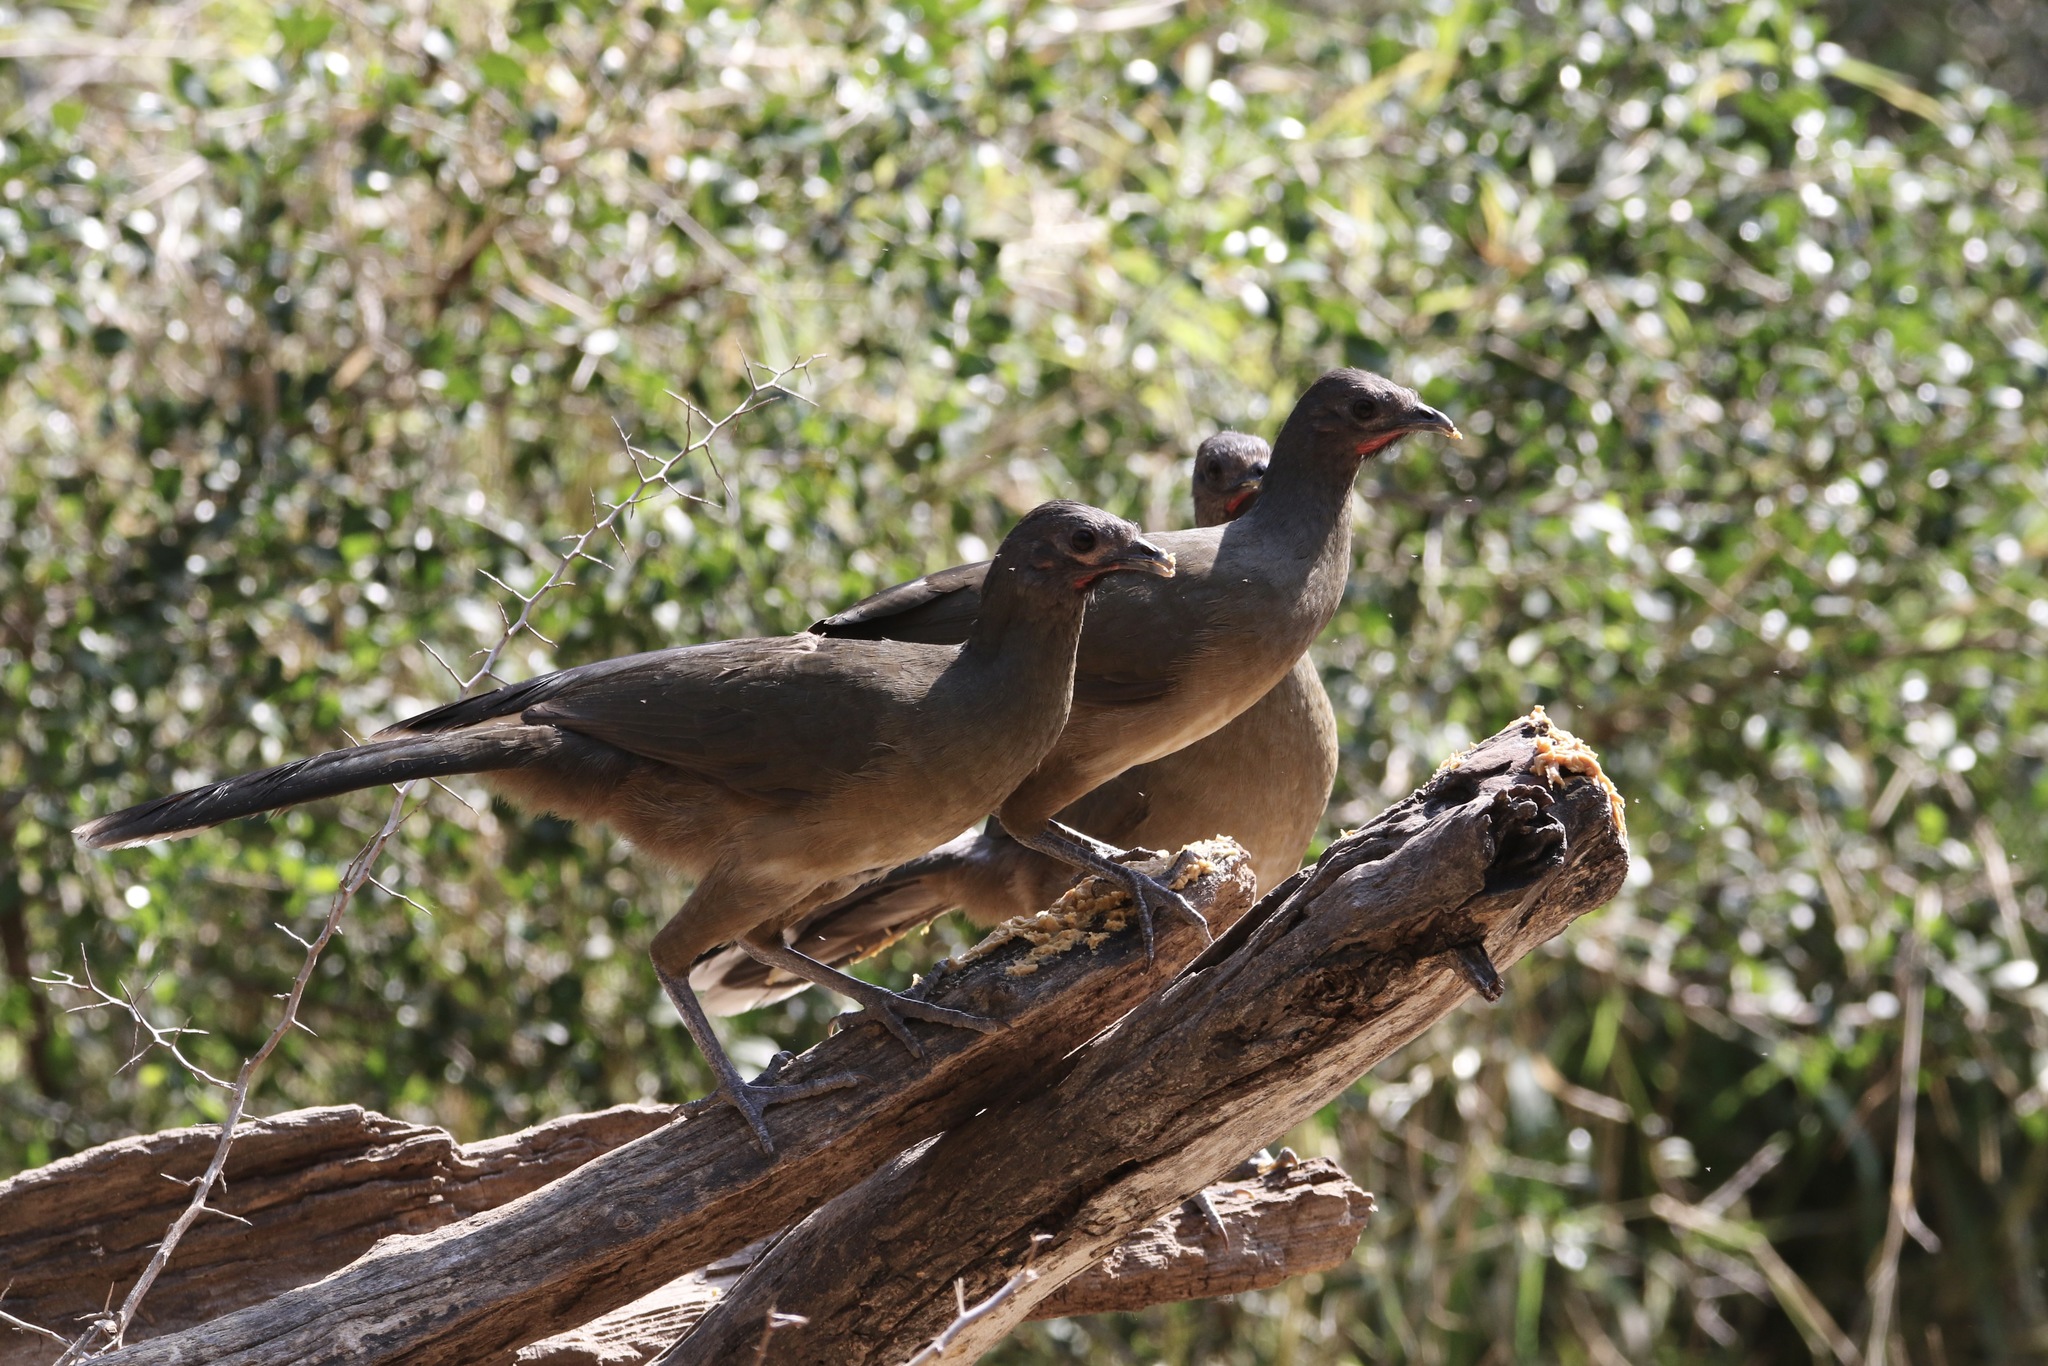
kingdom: Animalia
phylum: Chordata
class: Aves
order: Galliformes
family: Cracidae
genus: Ortalis
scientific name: Ortalis vetula
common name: Plain chachalaca
